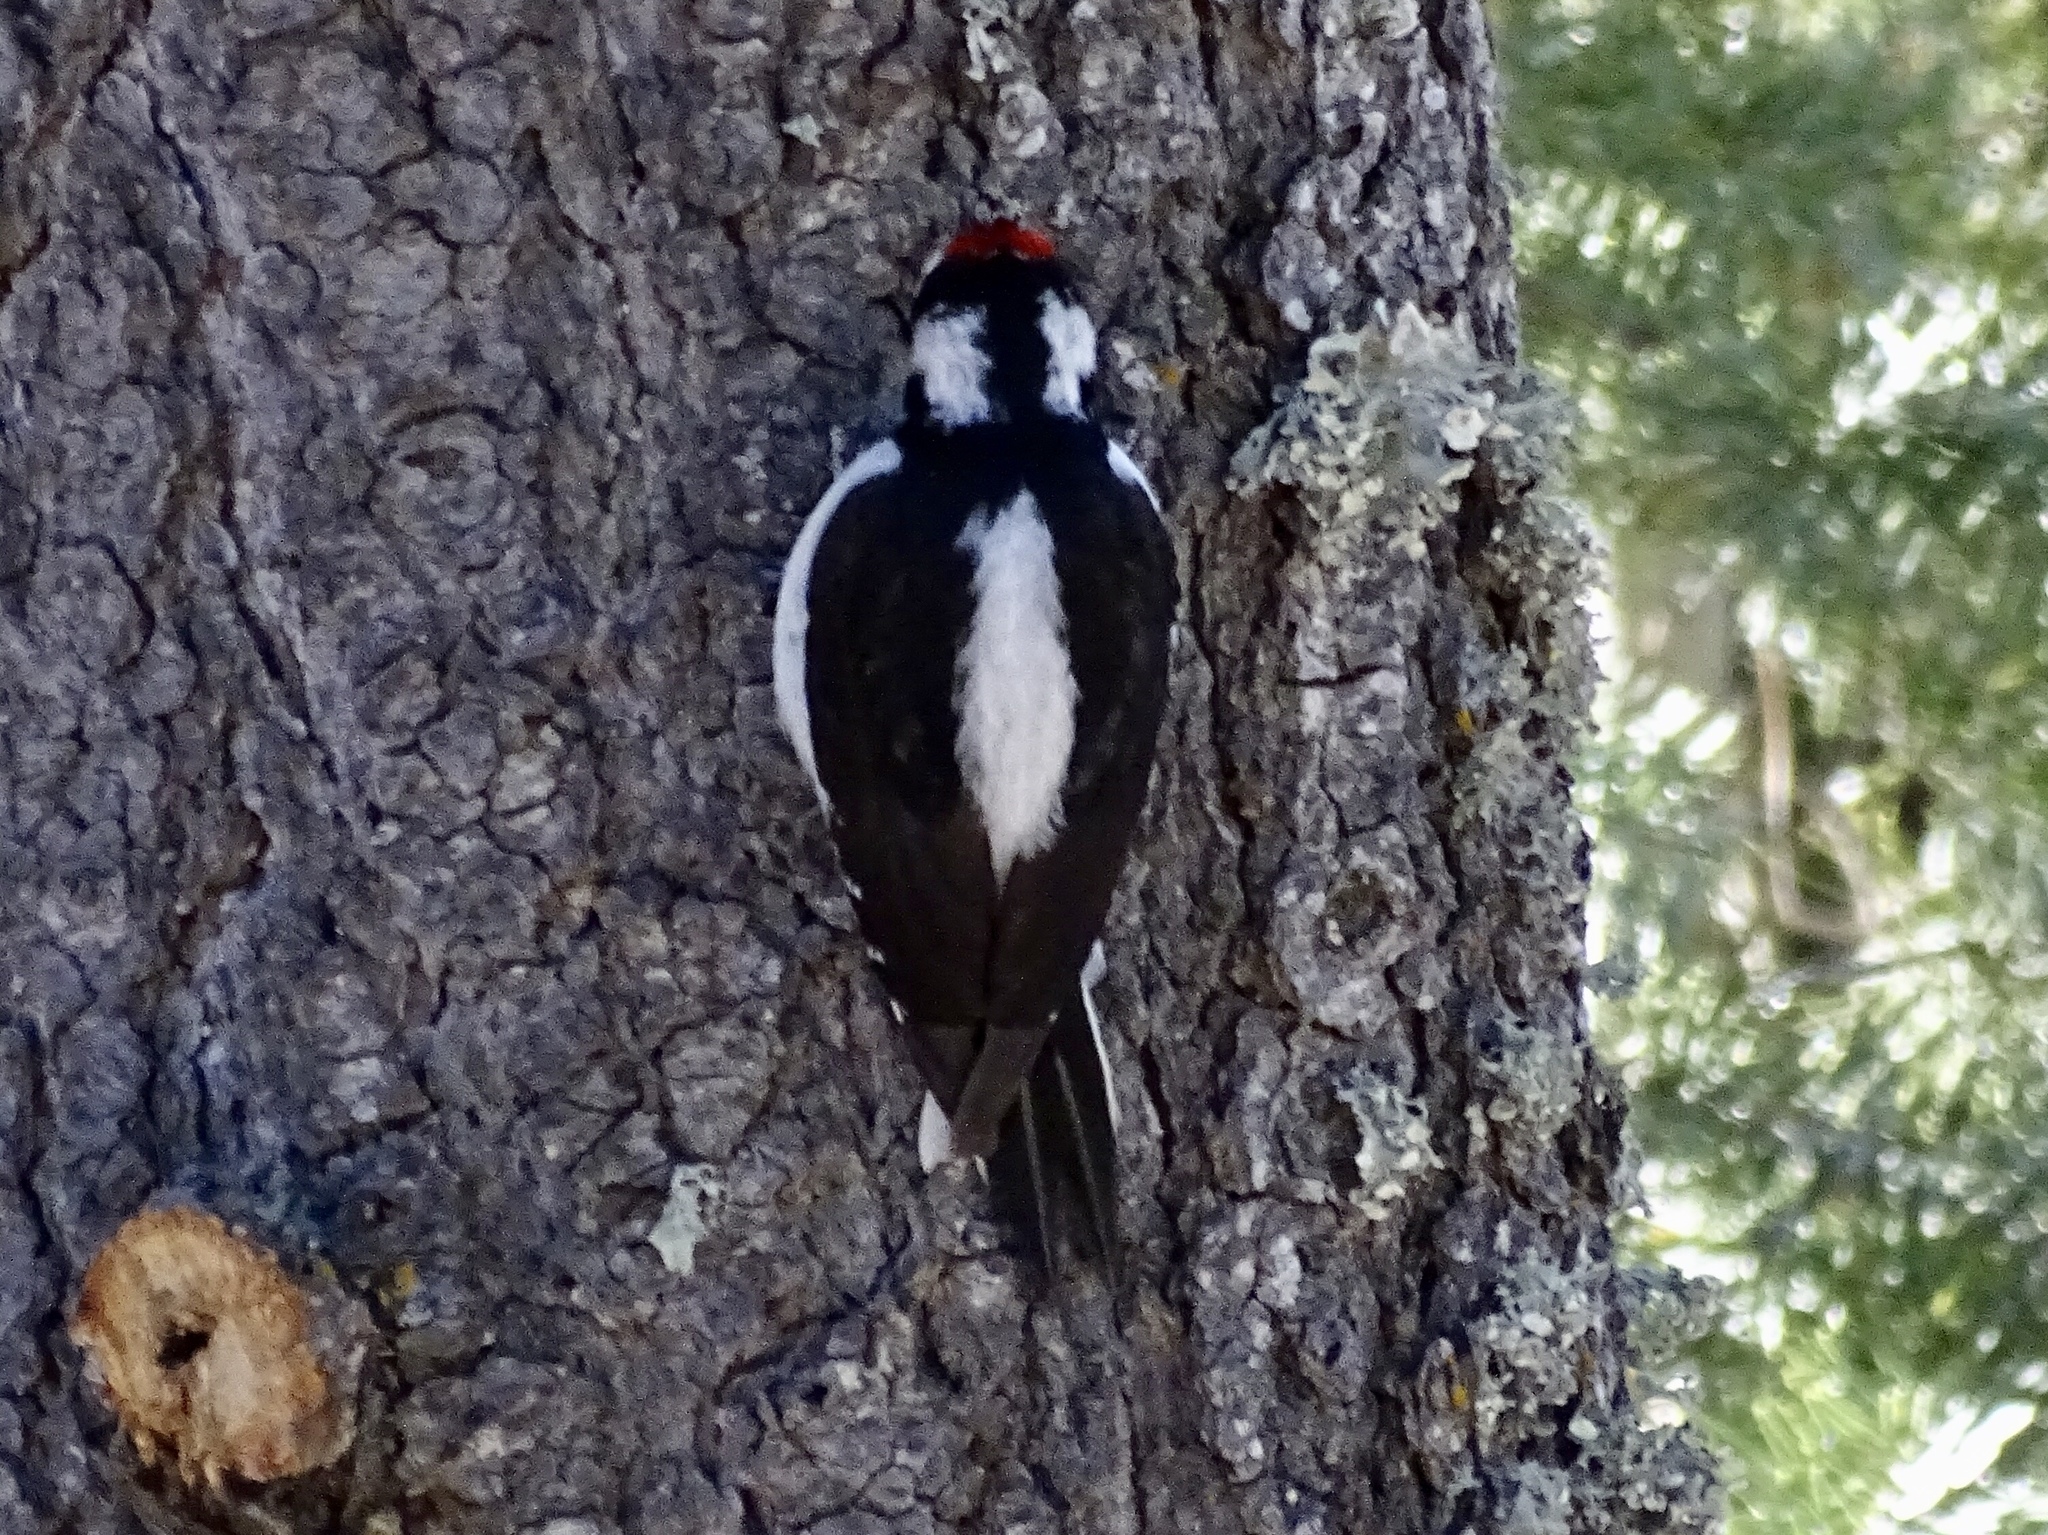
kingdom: Animalia
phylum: Chordata
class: Aves
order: Piciformes
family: Picidae
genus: Leuconotopicus
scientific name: Leuconotopicus villosus
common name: Hairy woodpecker
